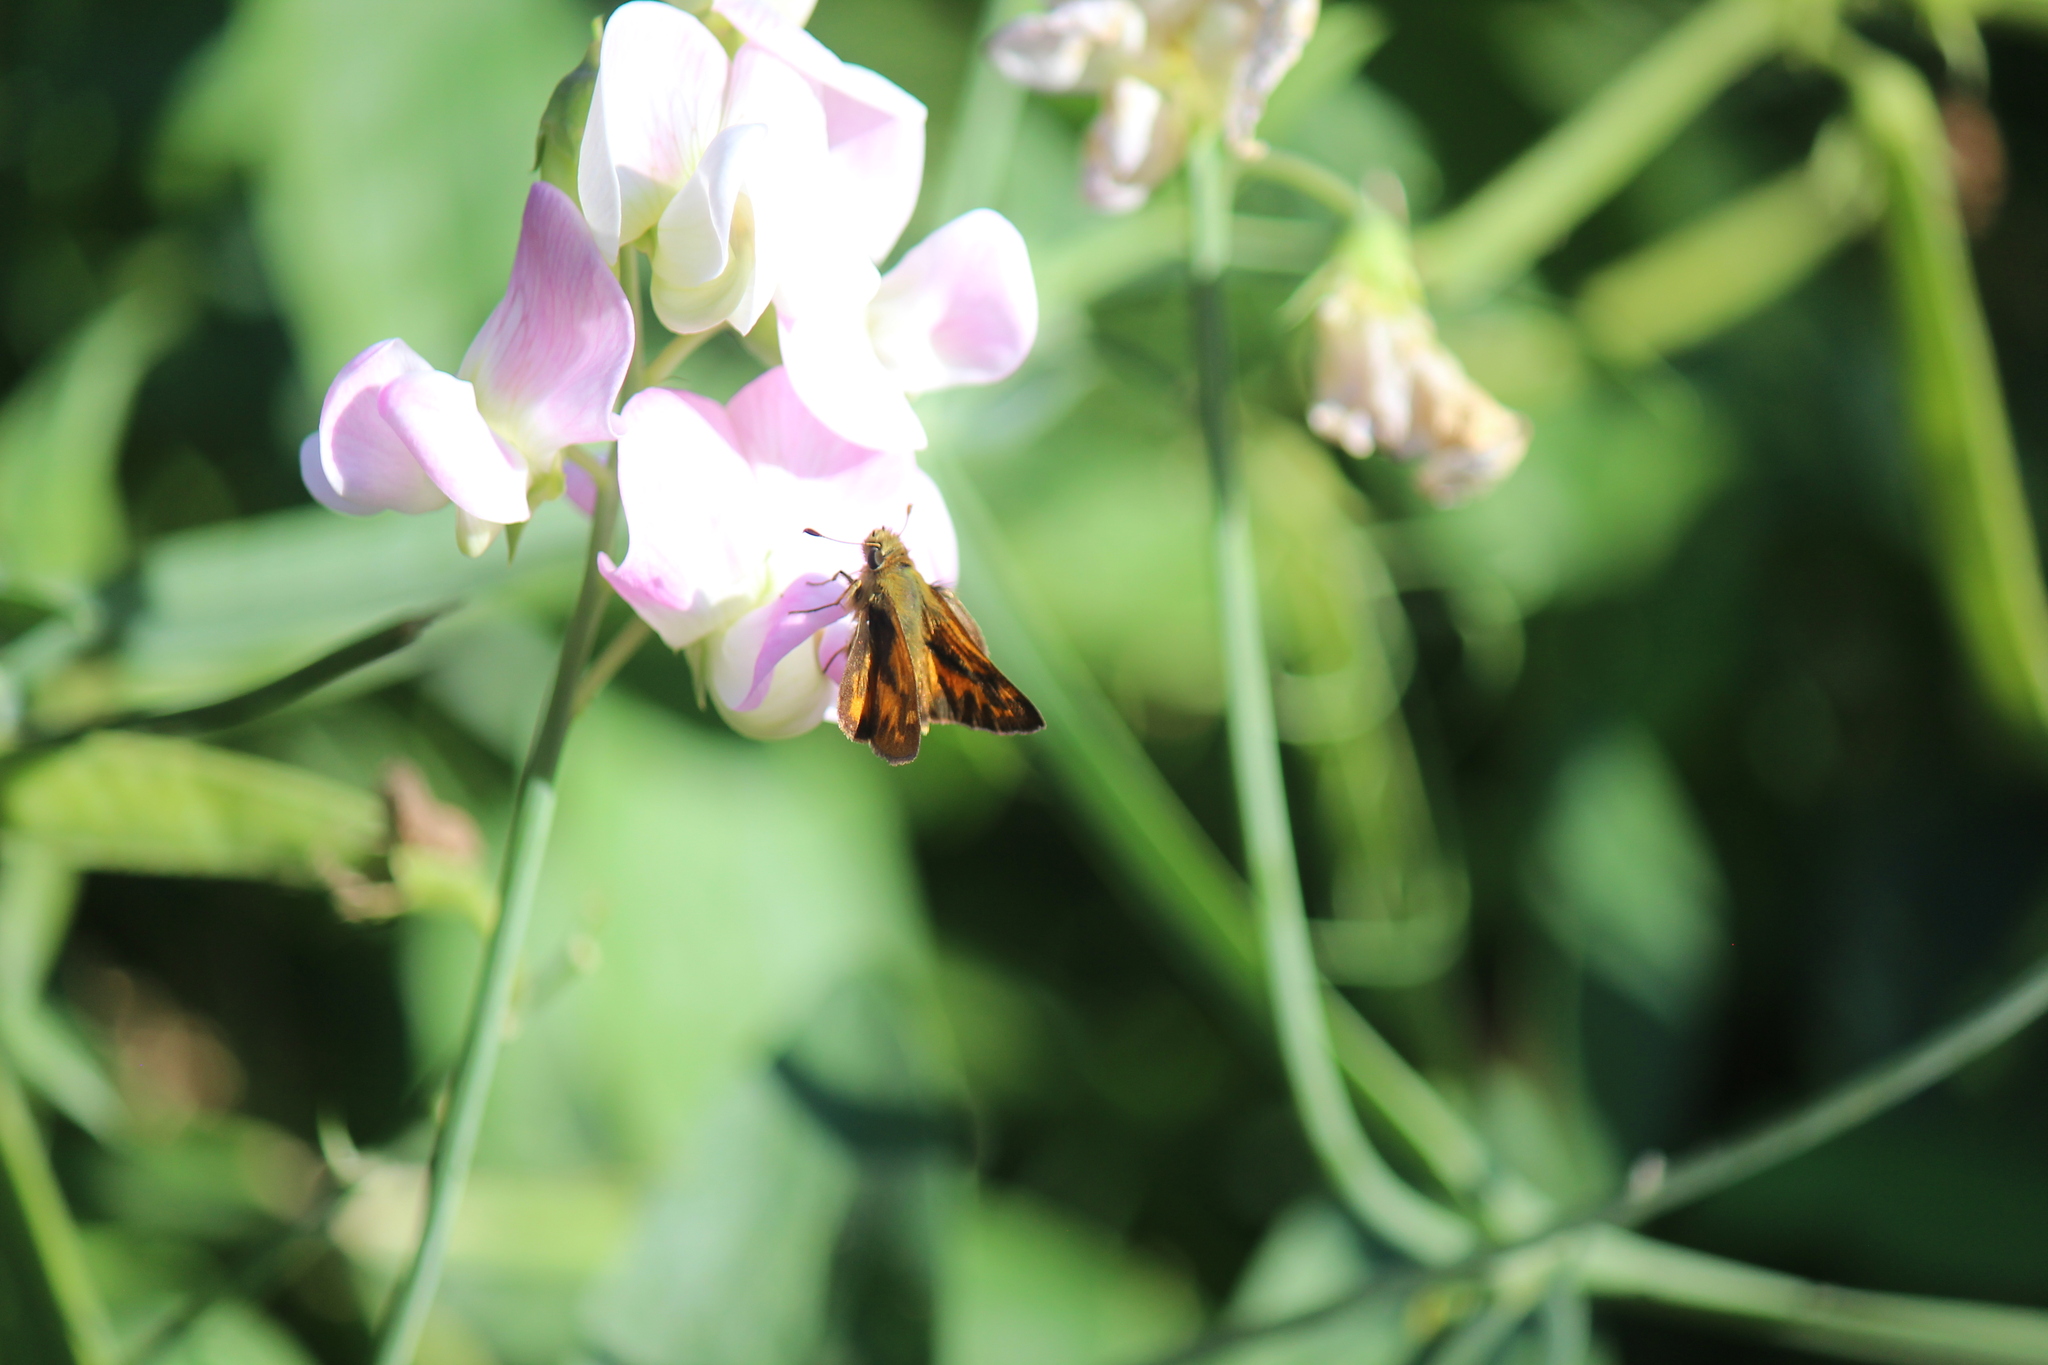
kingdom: Animalia
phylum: Arthropoda
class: Insecta
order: Lepidoptera
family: Hesperiidae
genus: Ochlodes
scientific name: Ochlodes sylvanoides
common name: Woodland skipper
